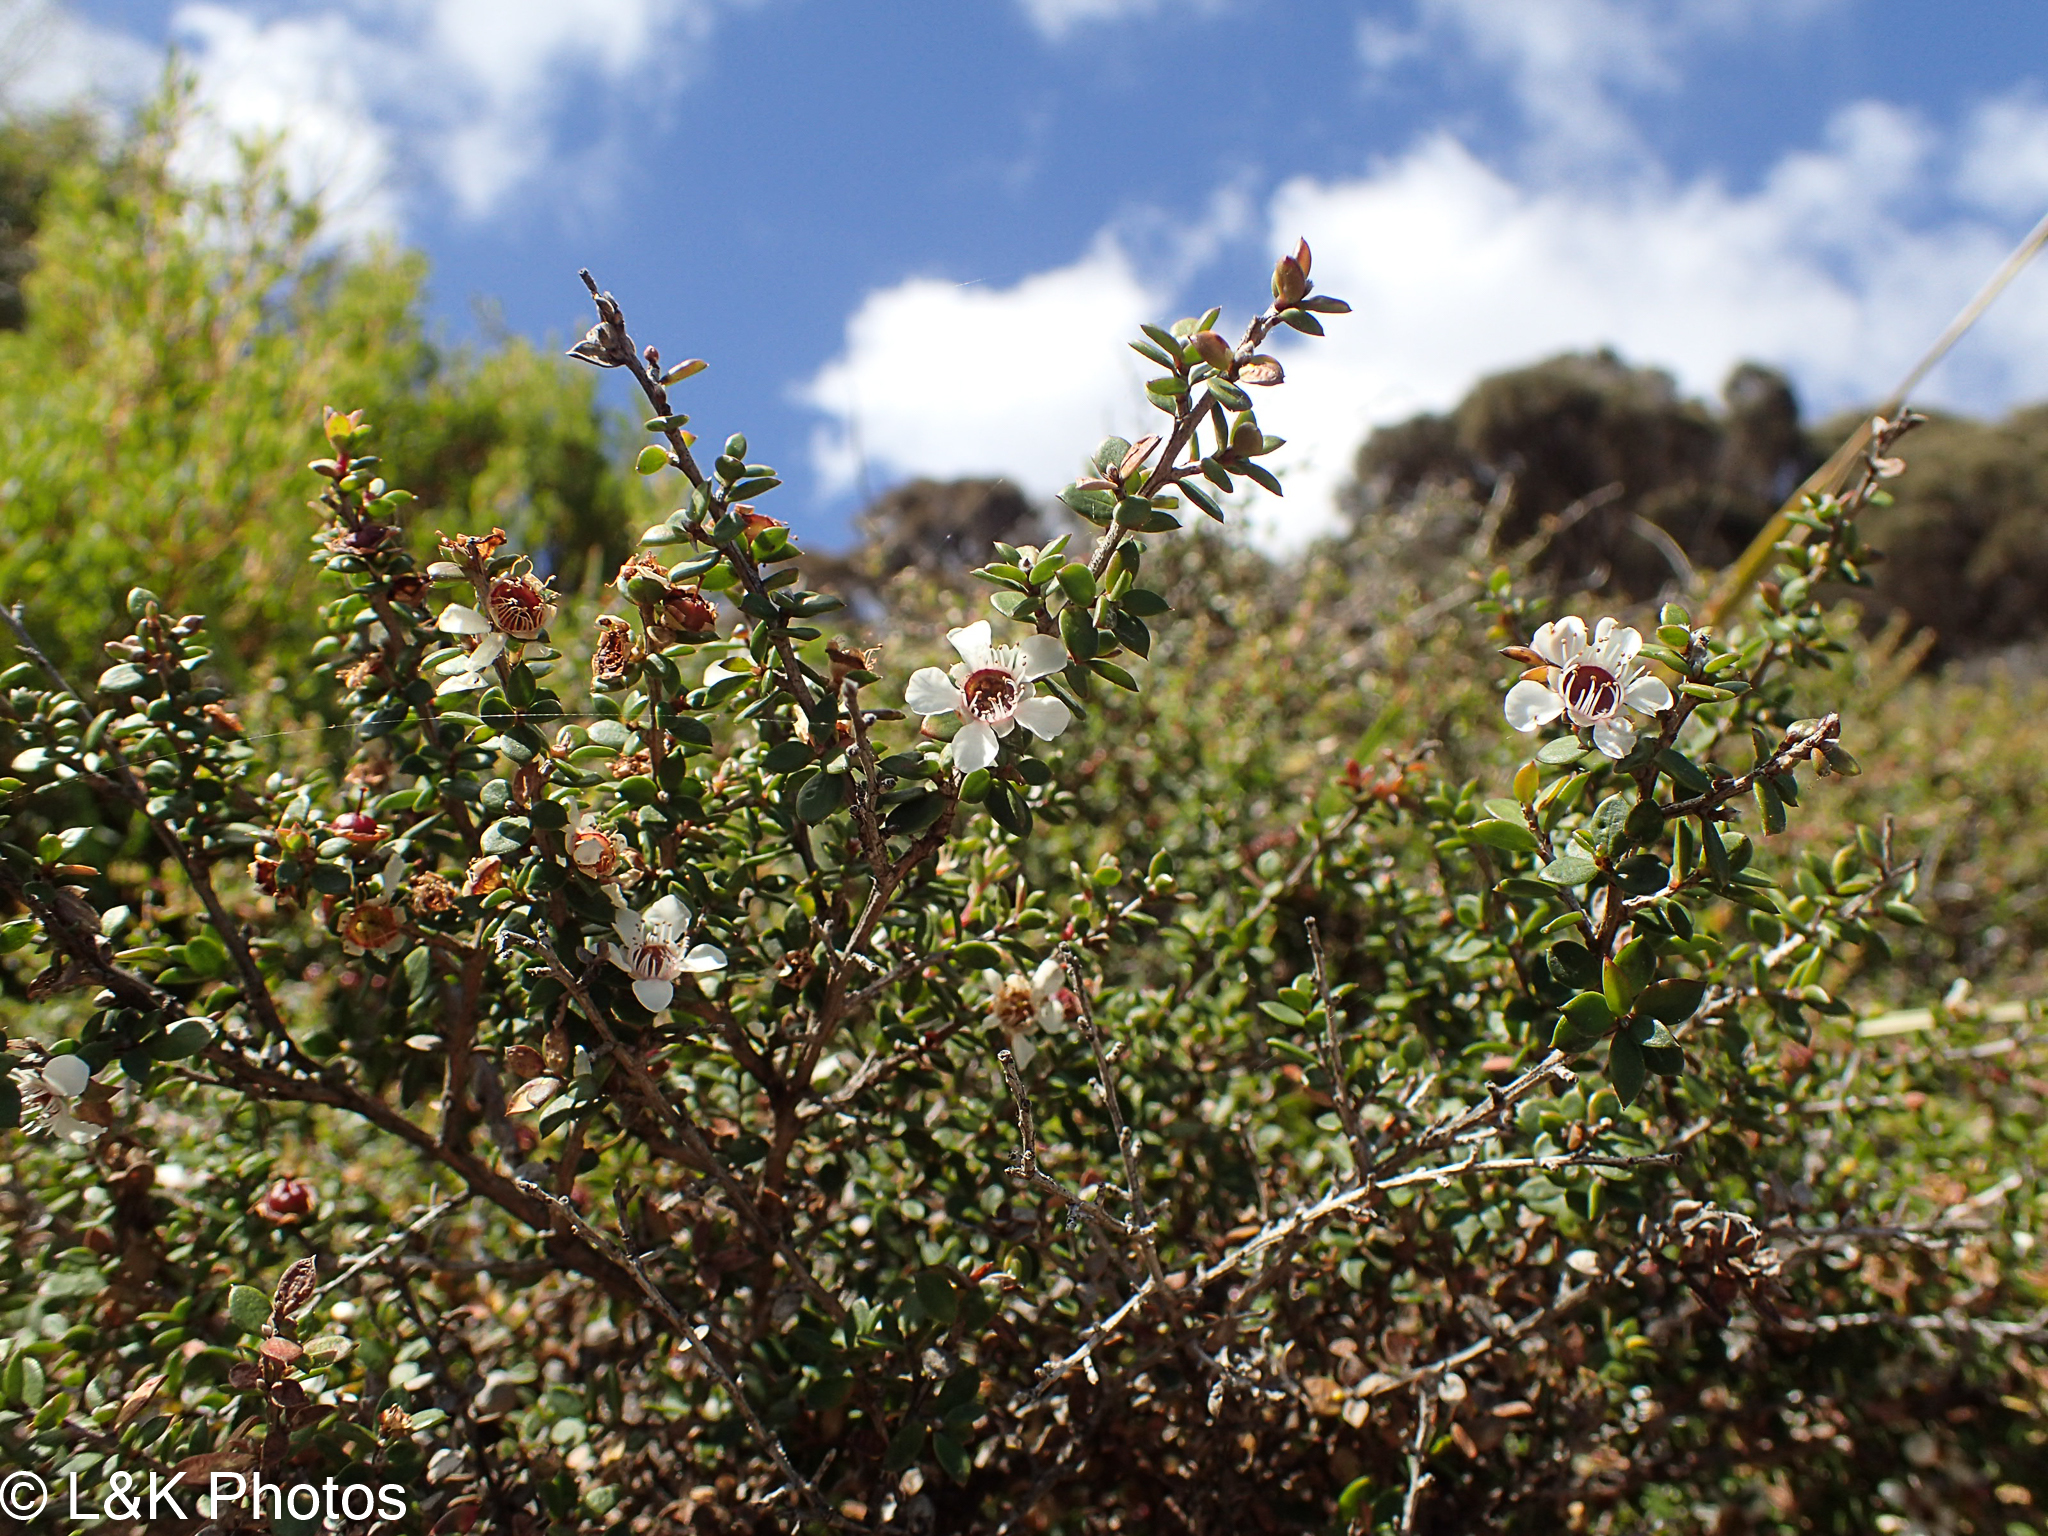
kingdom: Plantae
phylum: Tracheophyta
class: Magnoliopsida
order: Myrtales
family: Myrtaceae
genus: Leptospermum
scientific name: Leptospermum scoparium
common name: Broom tea-tree
